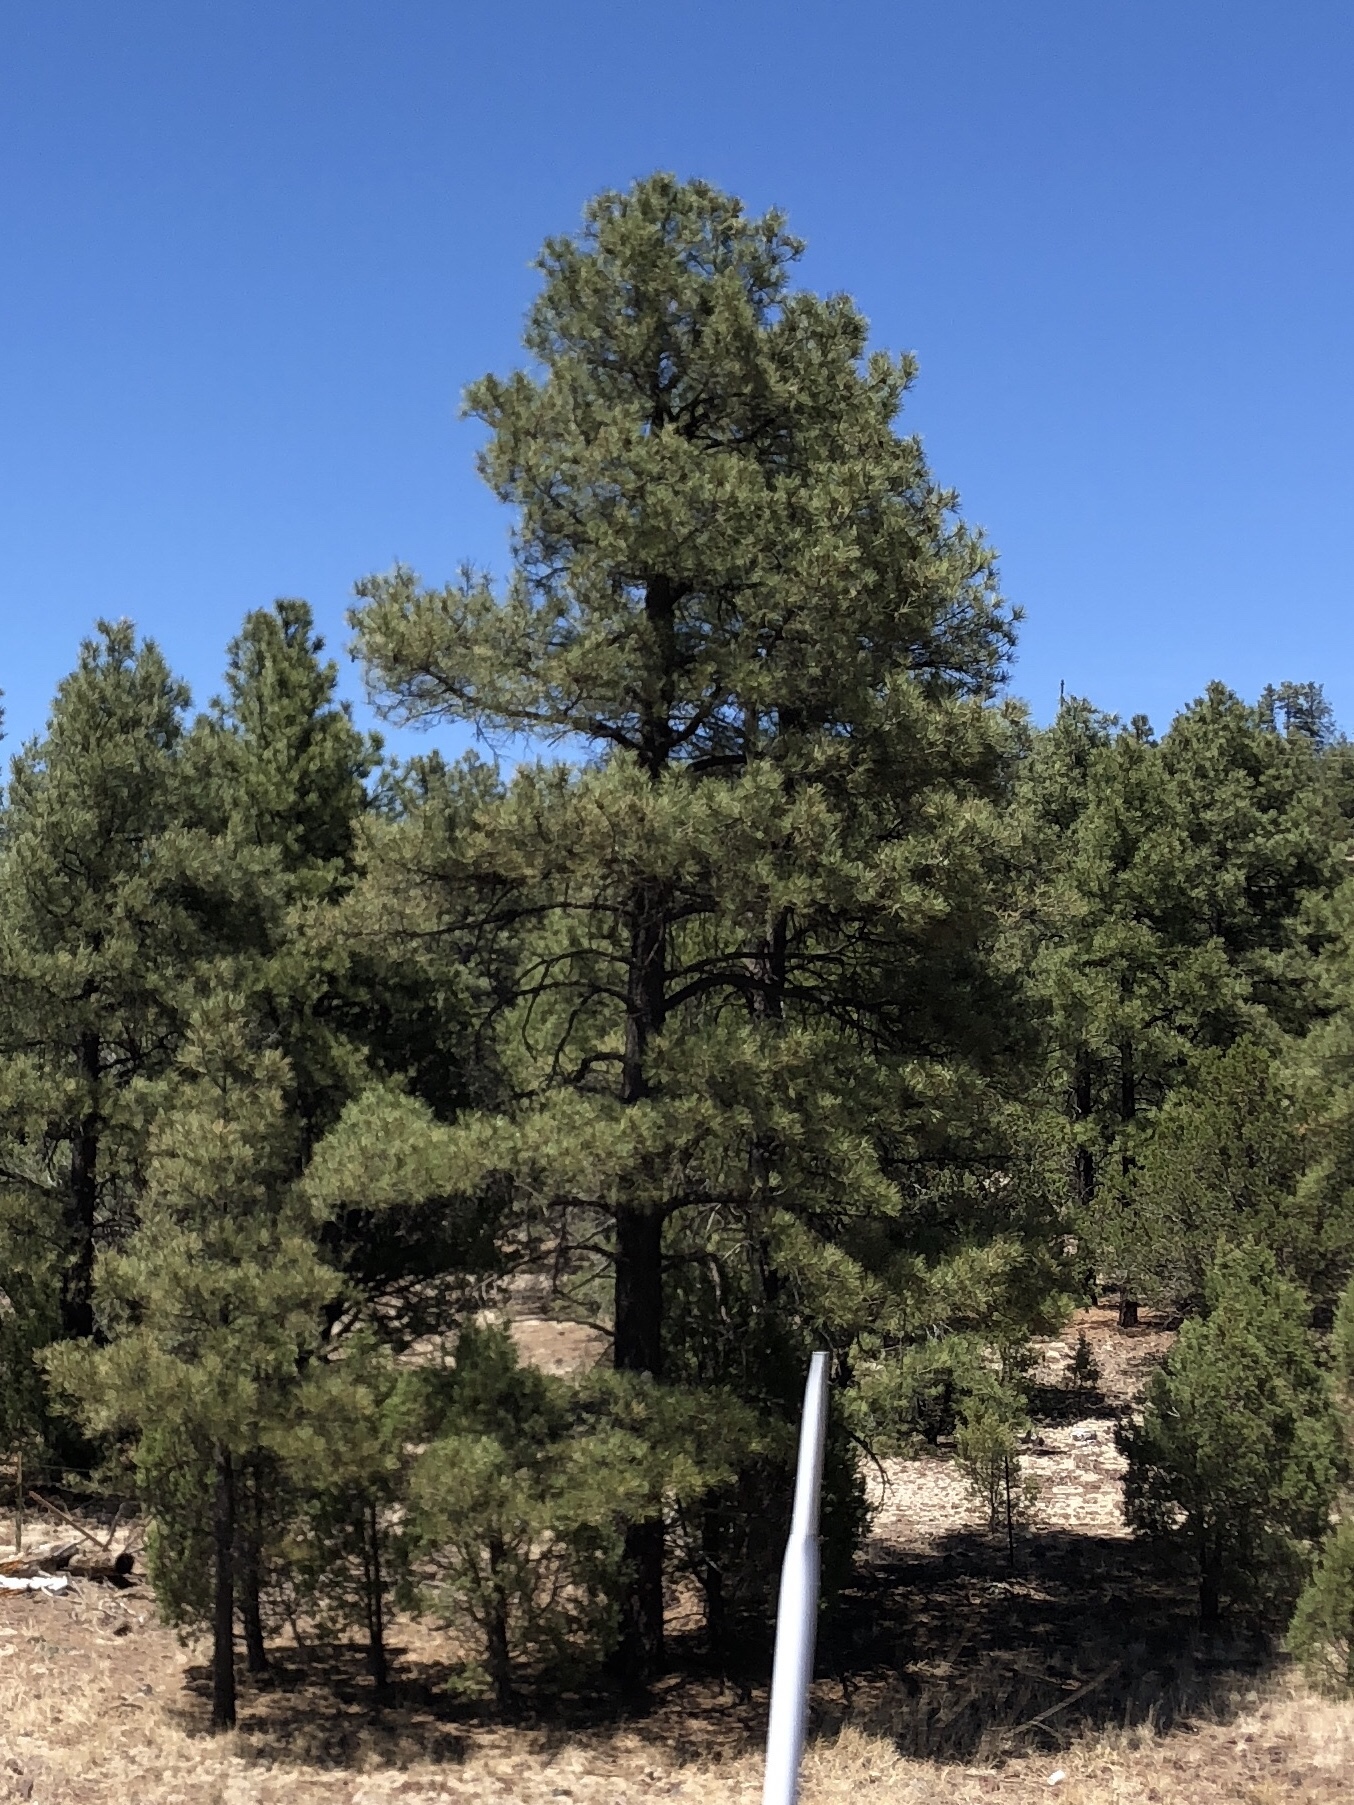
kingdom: Plantae
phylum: Tracheophyta
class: Pinopsida
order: Pinales
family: Pinaceae
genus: Pinus
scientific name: Pinus ponderosa
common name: Western yellow-pine
